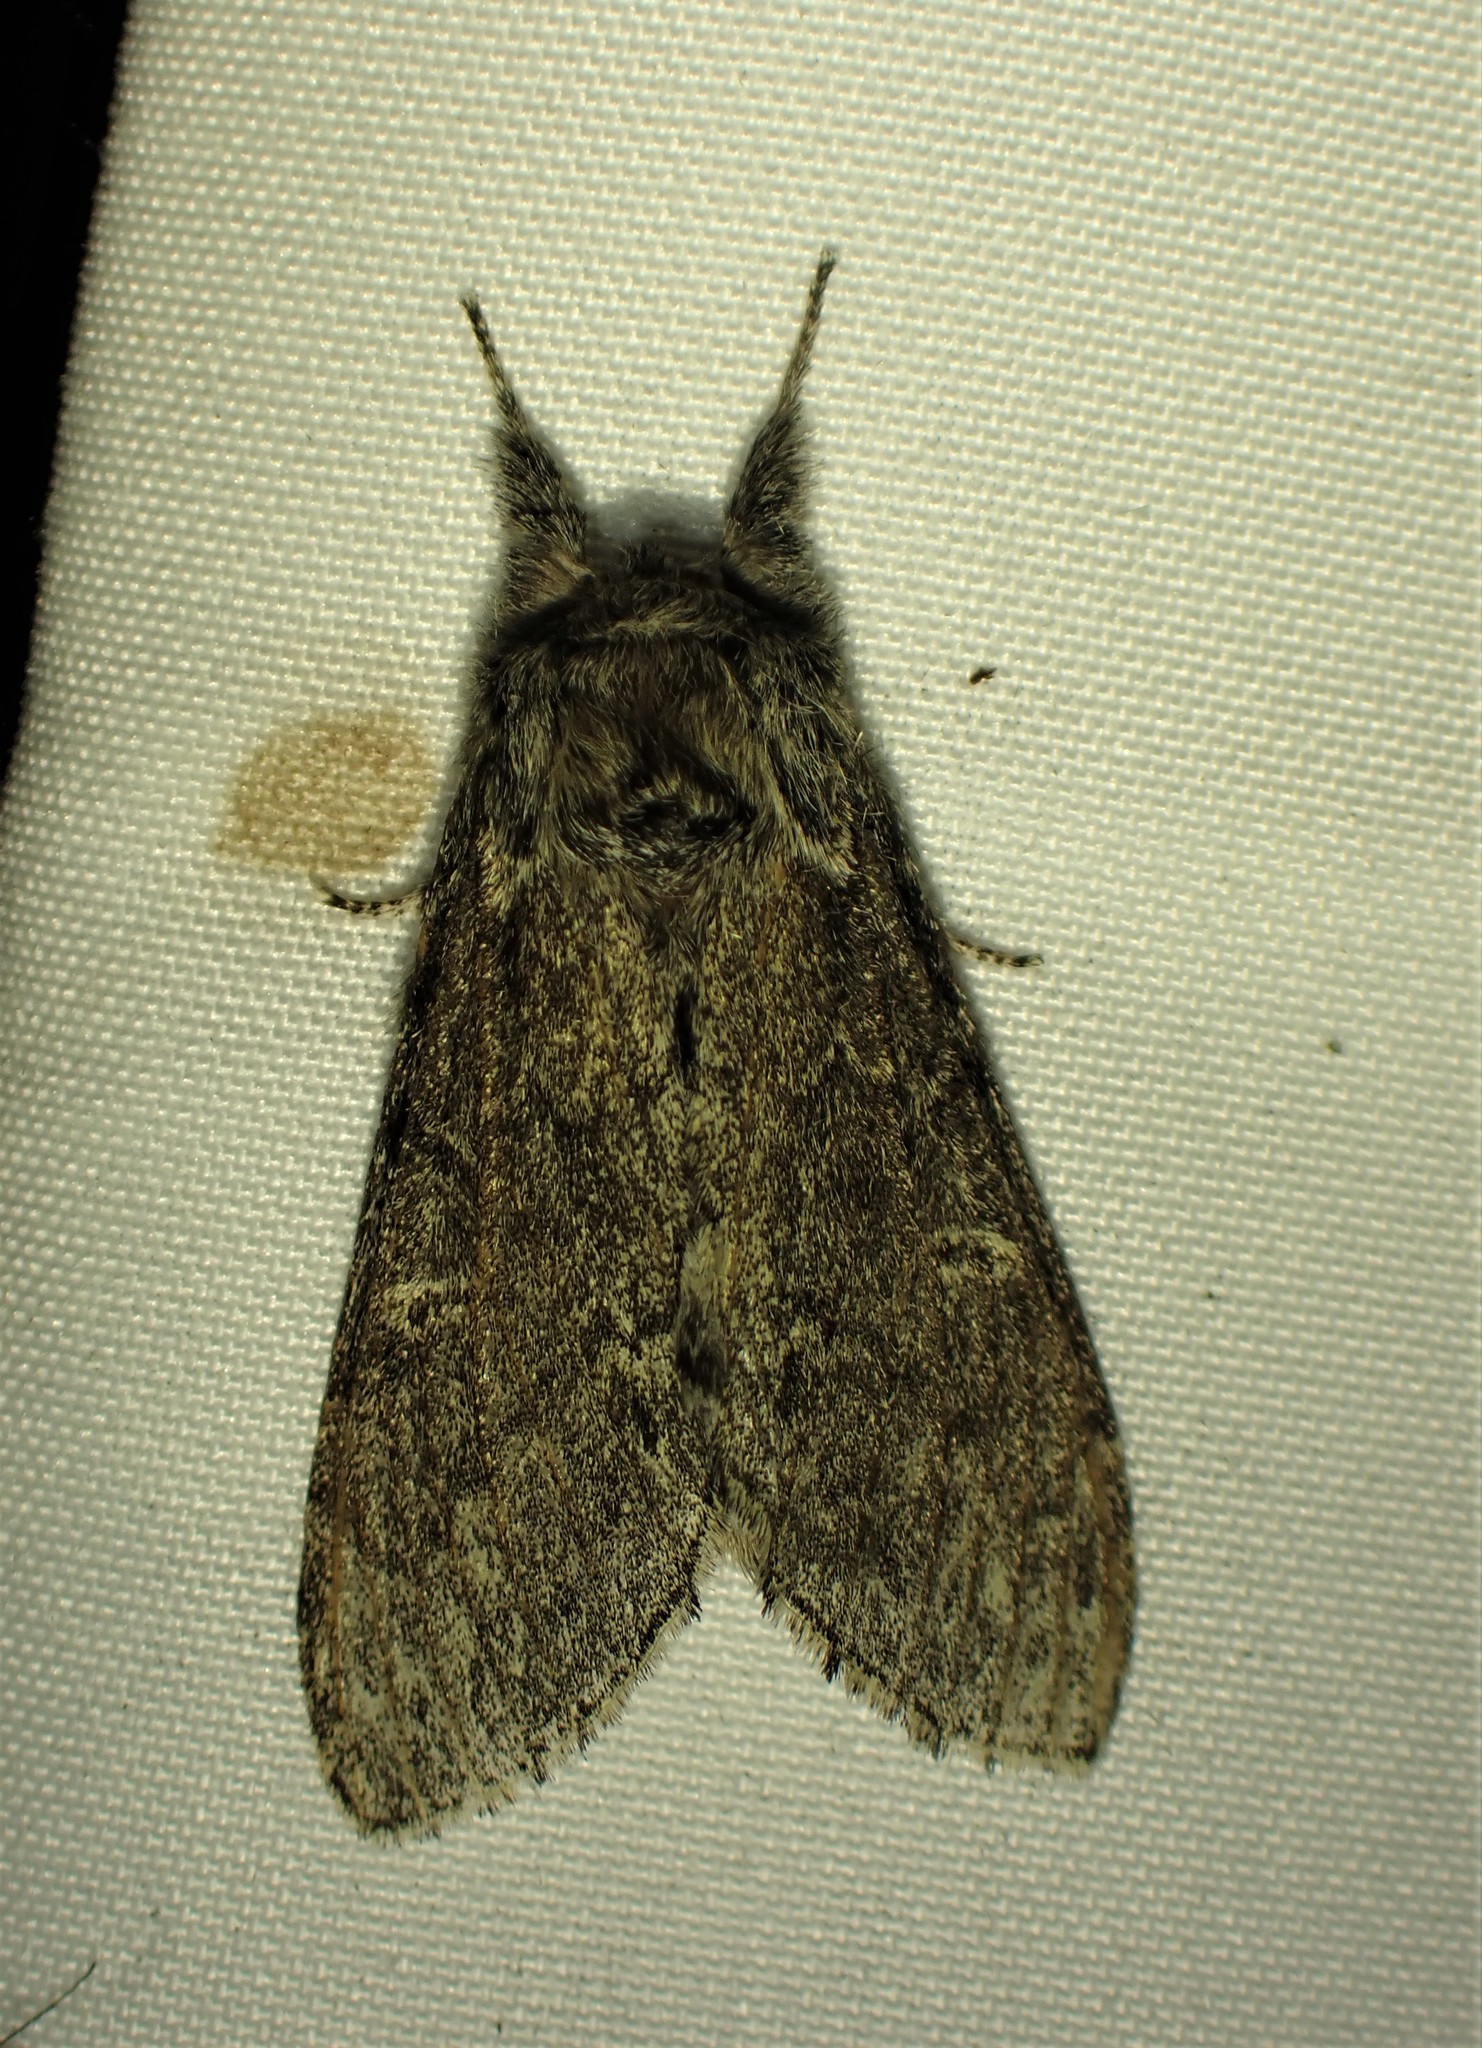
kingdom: Animalia
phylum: Arthropoda
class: Insecta
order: Lepidoptera
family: Notodontidae
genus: Notodonta
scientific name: Notodonta torva
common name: Large dark prominent
